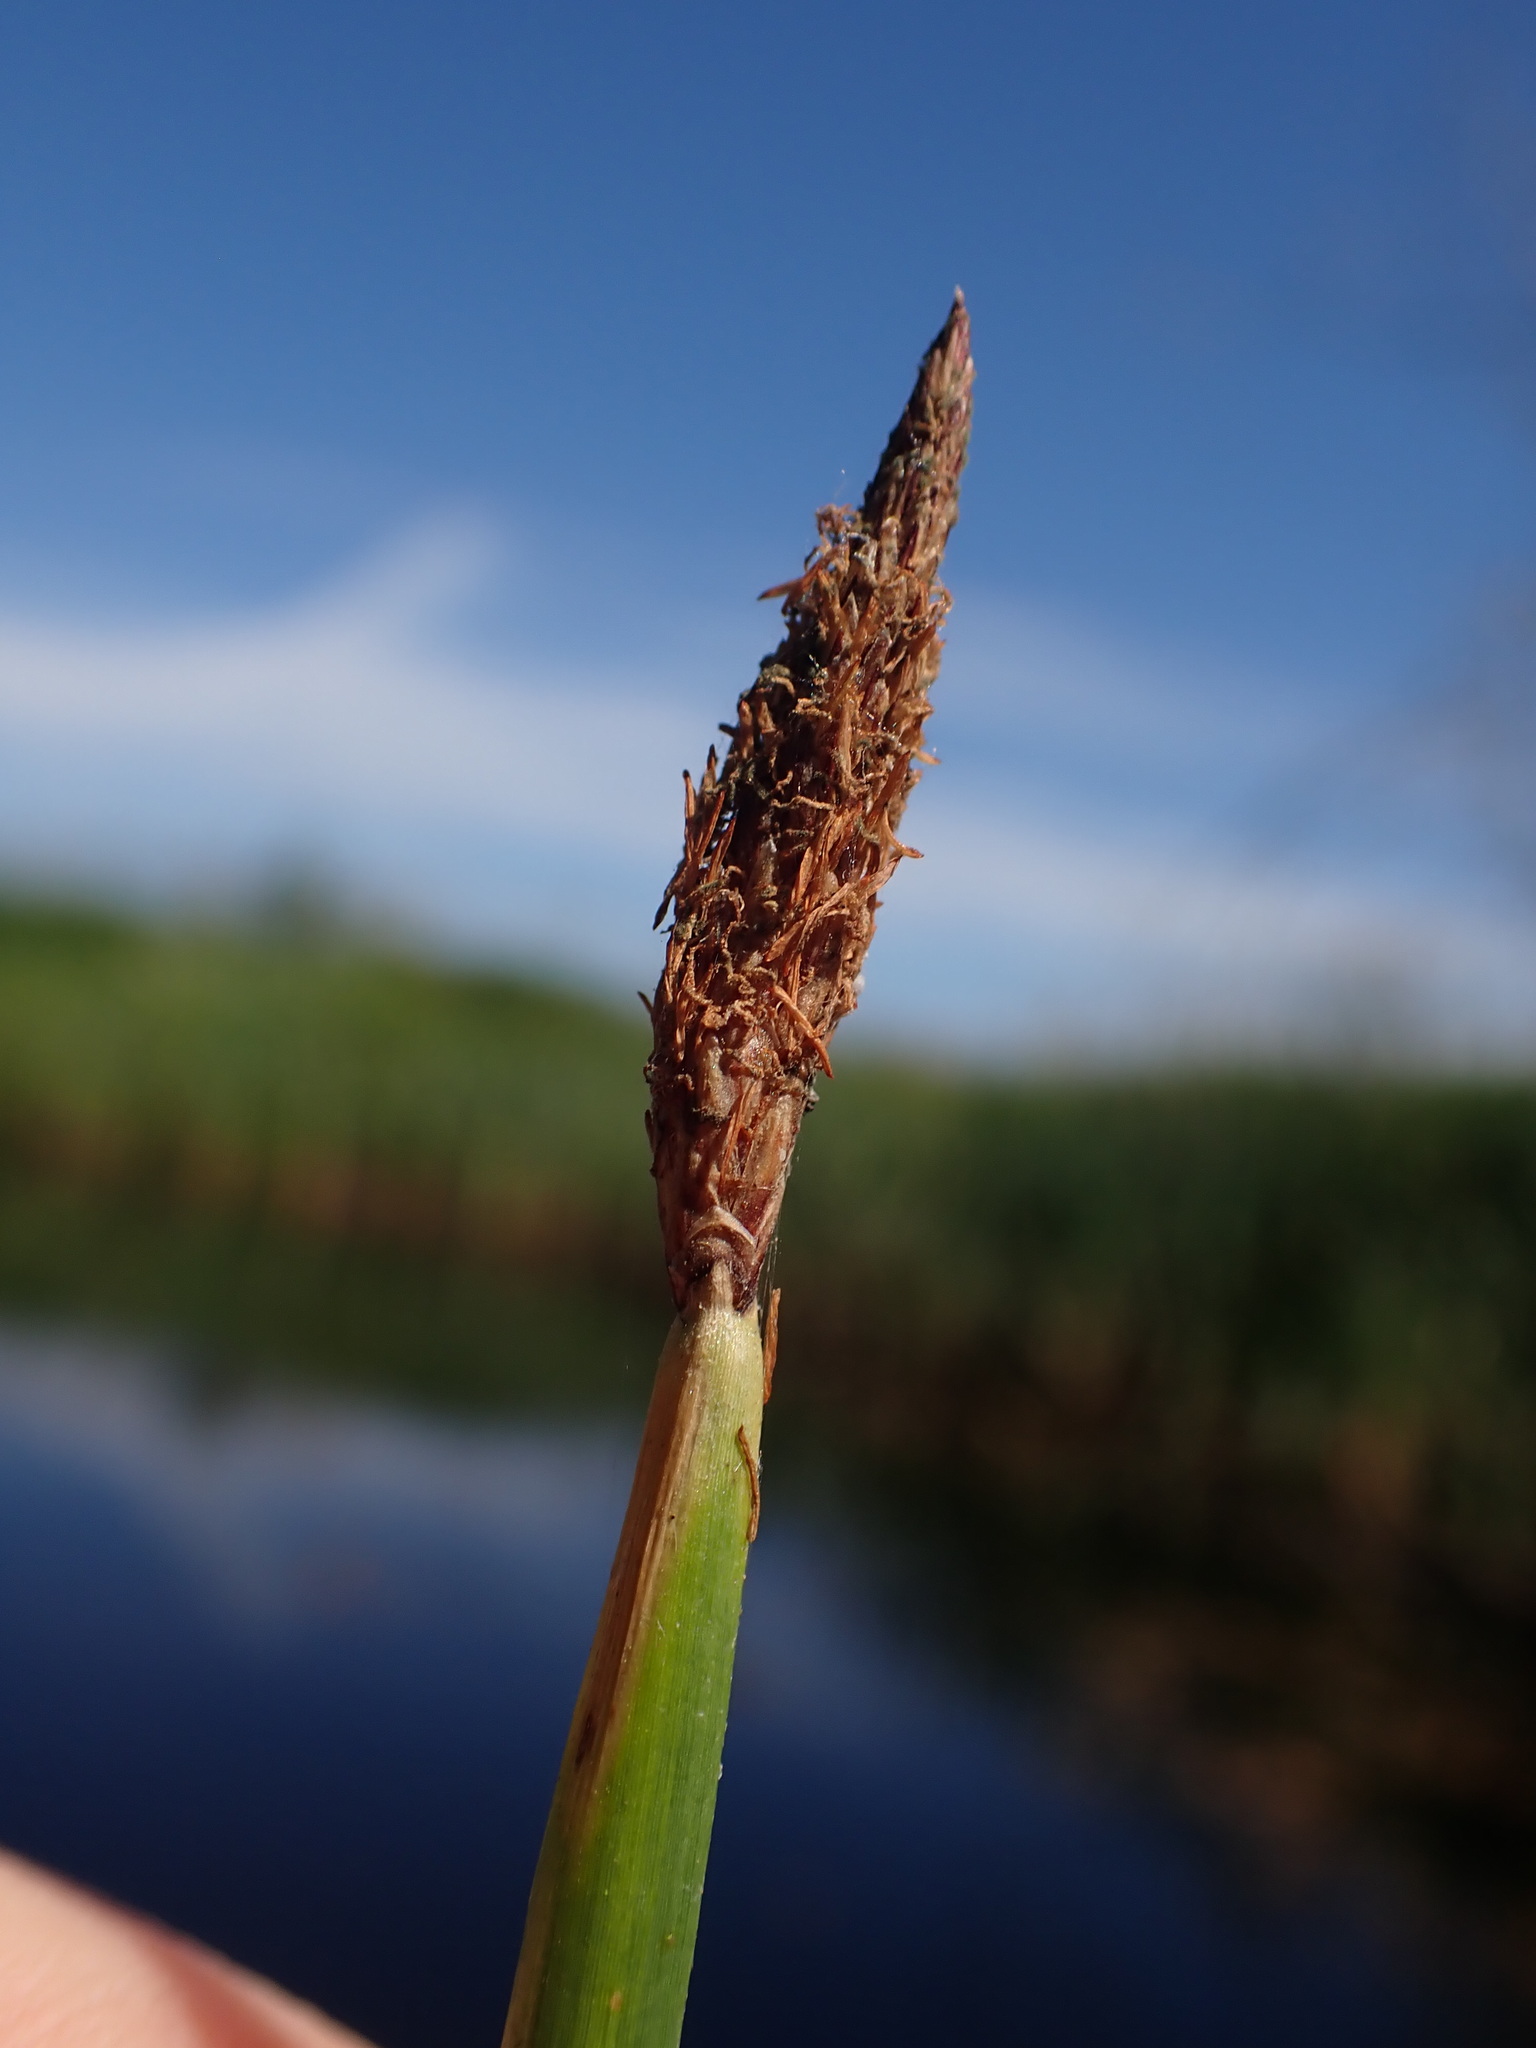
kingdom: Plantae
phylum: Tracheophyta
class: Liliopsida
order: Poales
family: Cyperaceae
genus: Eleocharis
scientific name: Eleocharis palustris
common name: Common spike-rush
